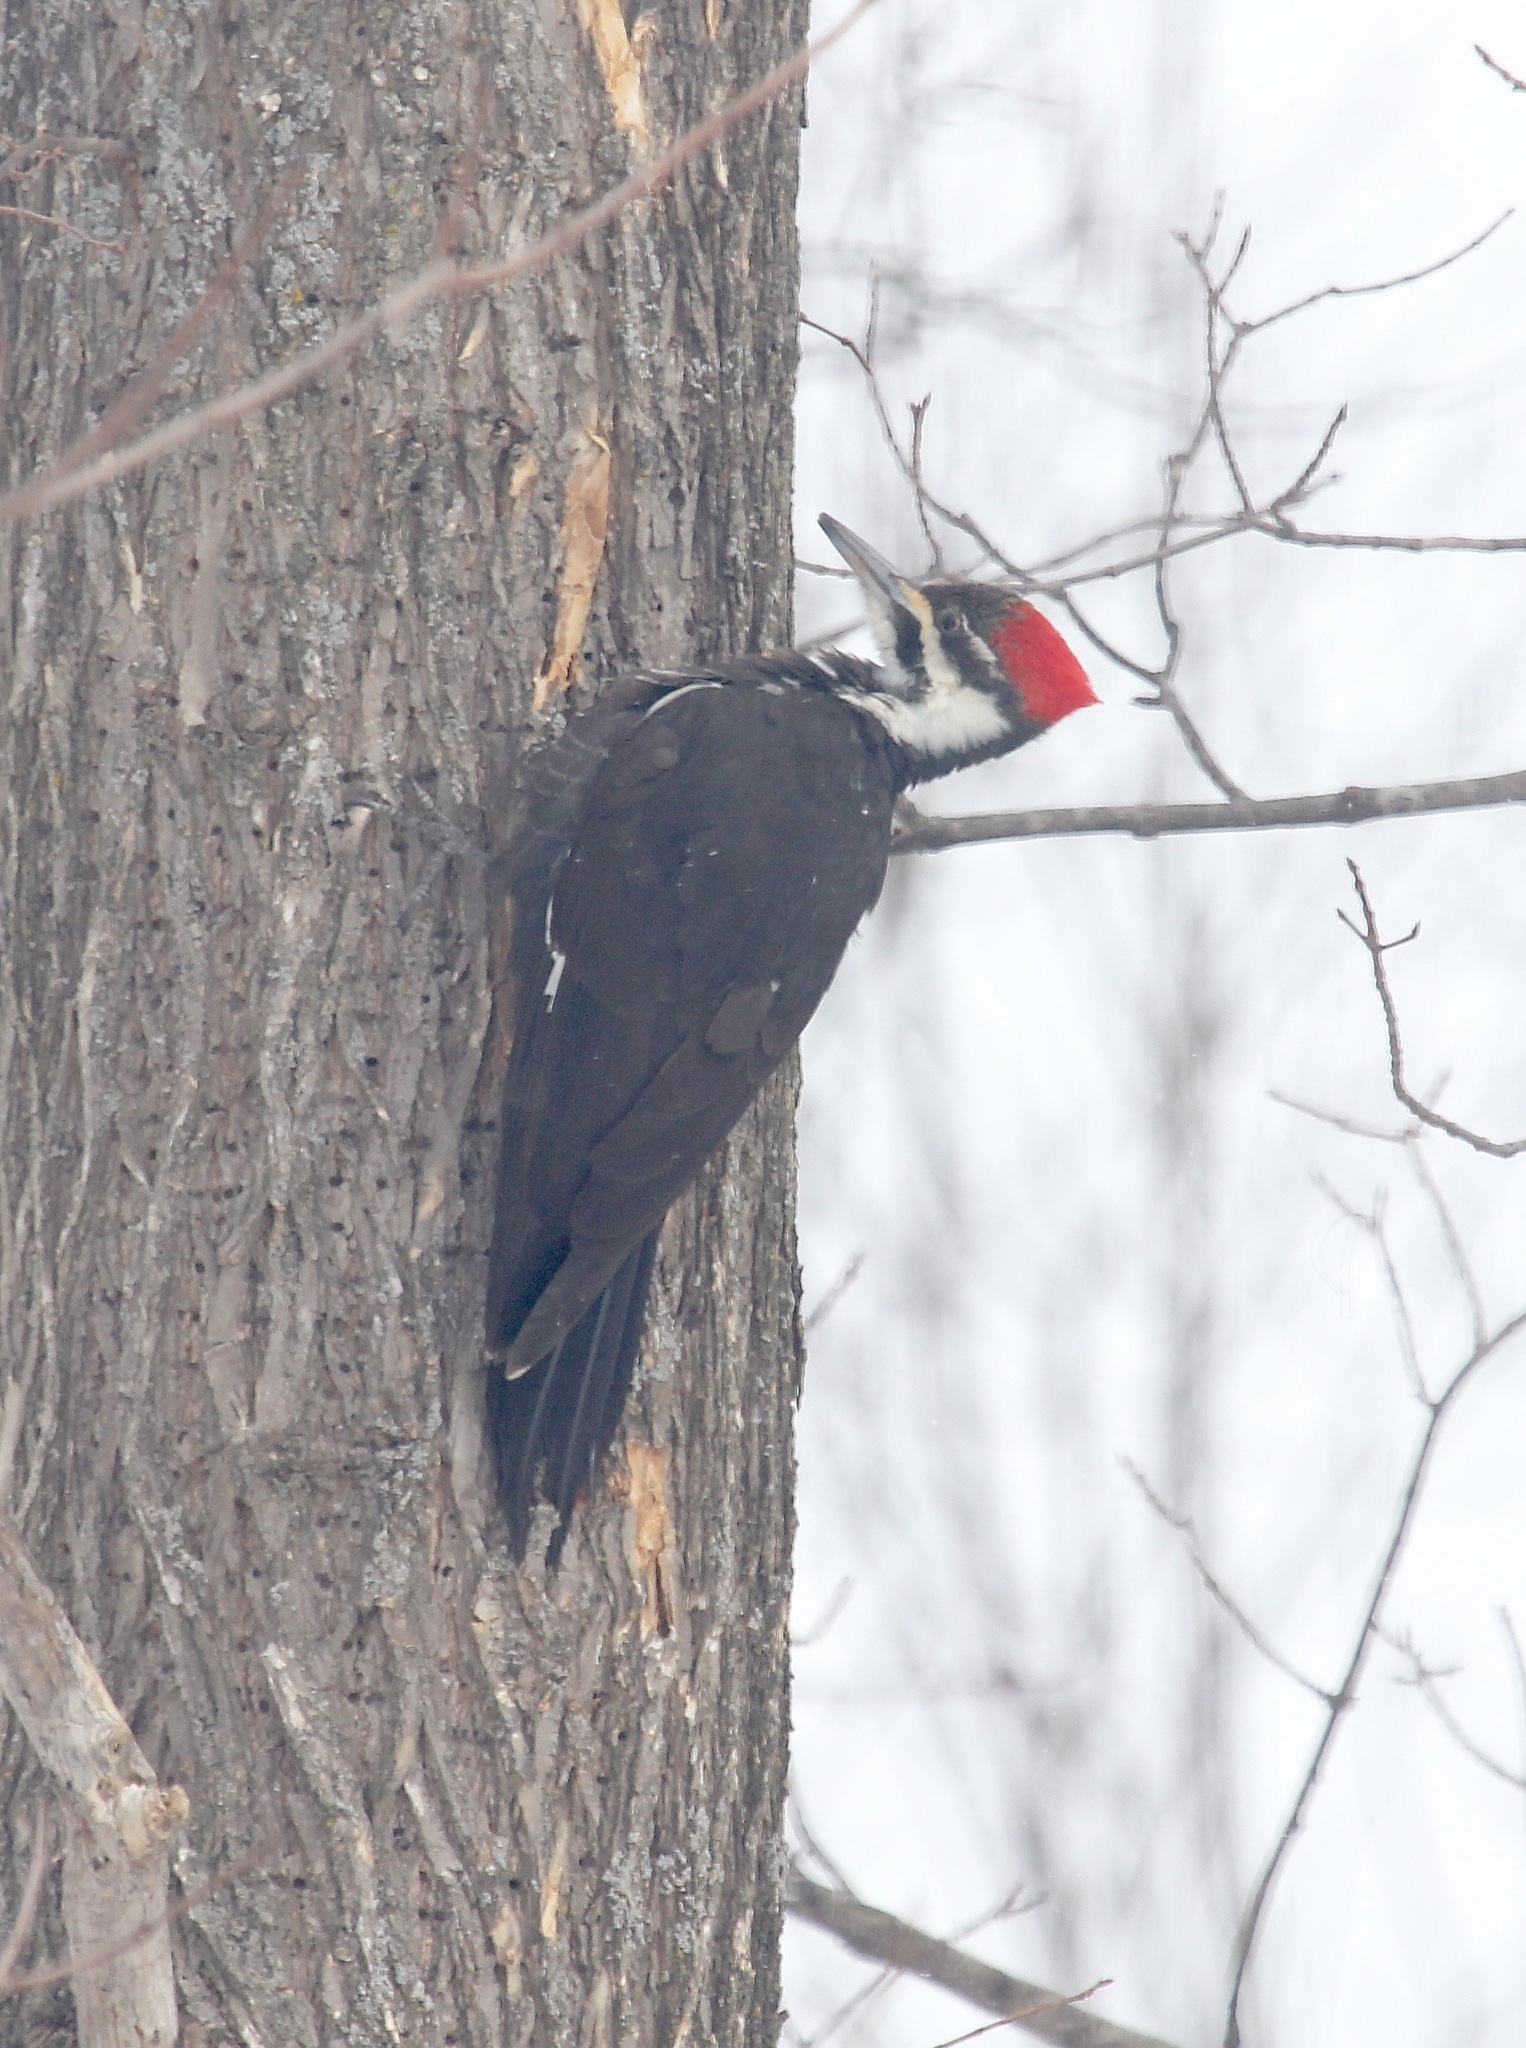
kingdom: Animalia
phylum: Chordata
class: Aves
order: Piciformes
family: Picidae
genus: Dryocopus
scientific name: Dryocopus pileatus
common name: Pileated woodpecker
